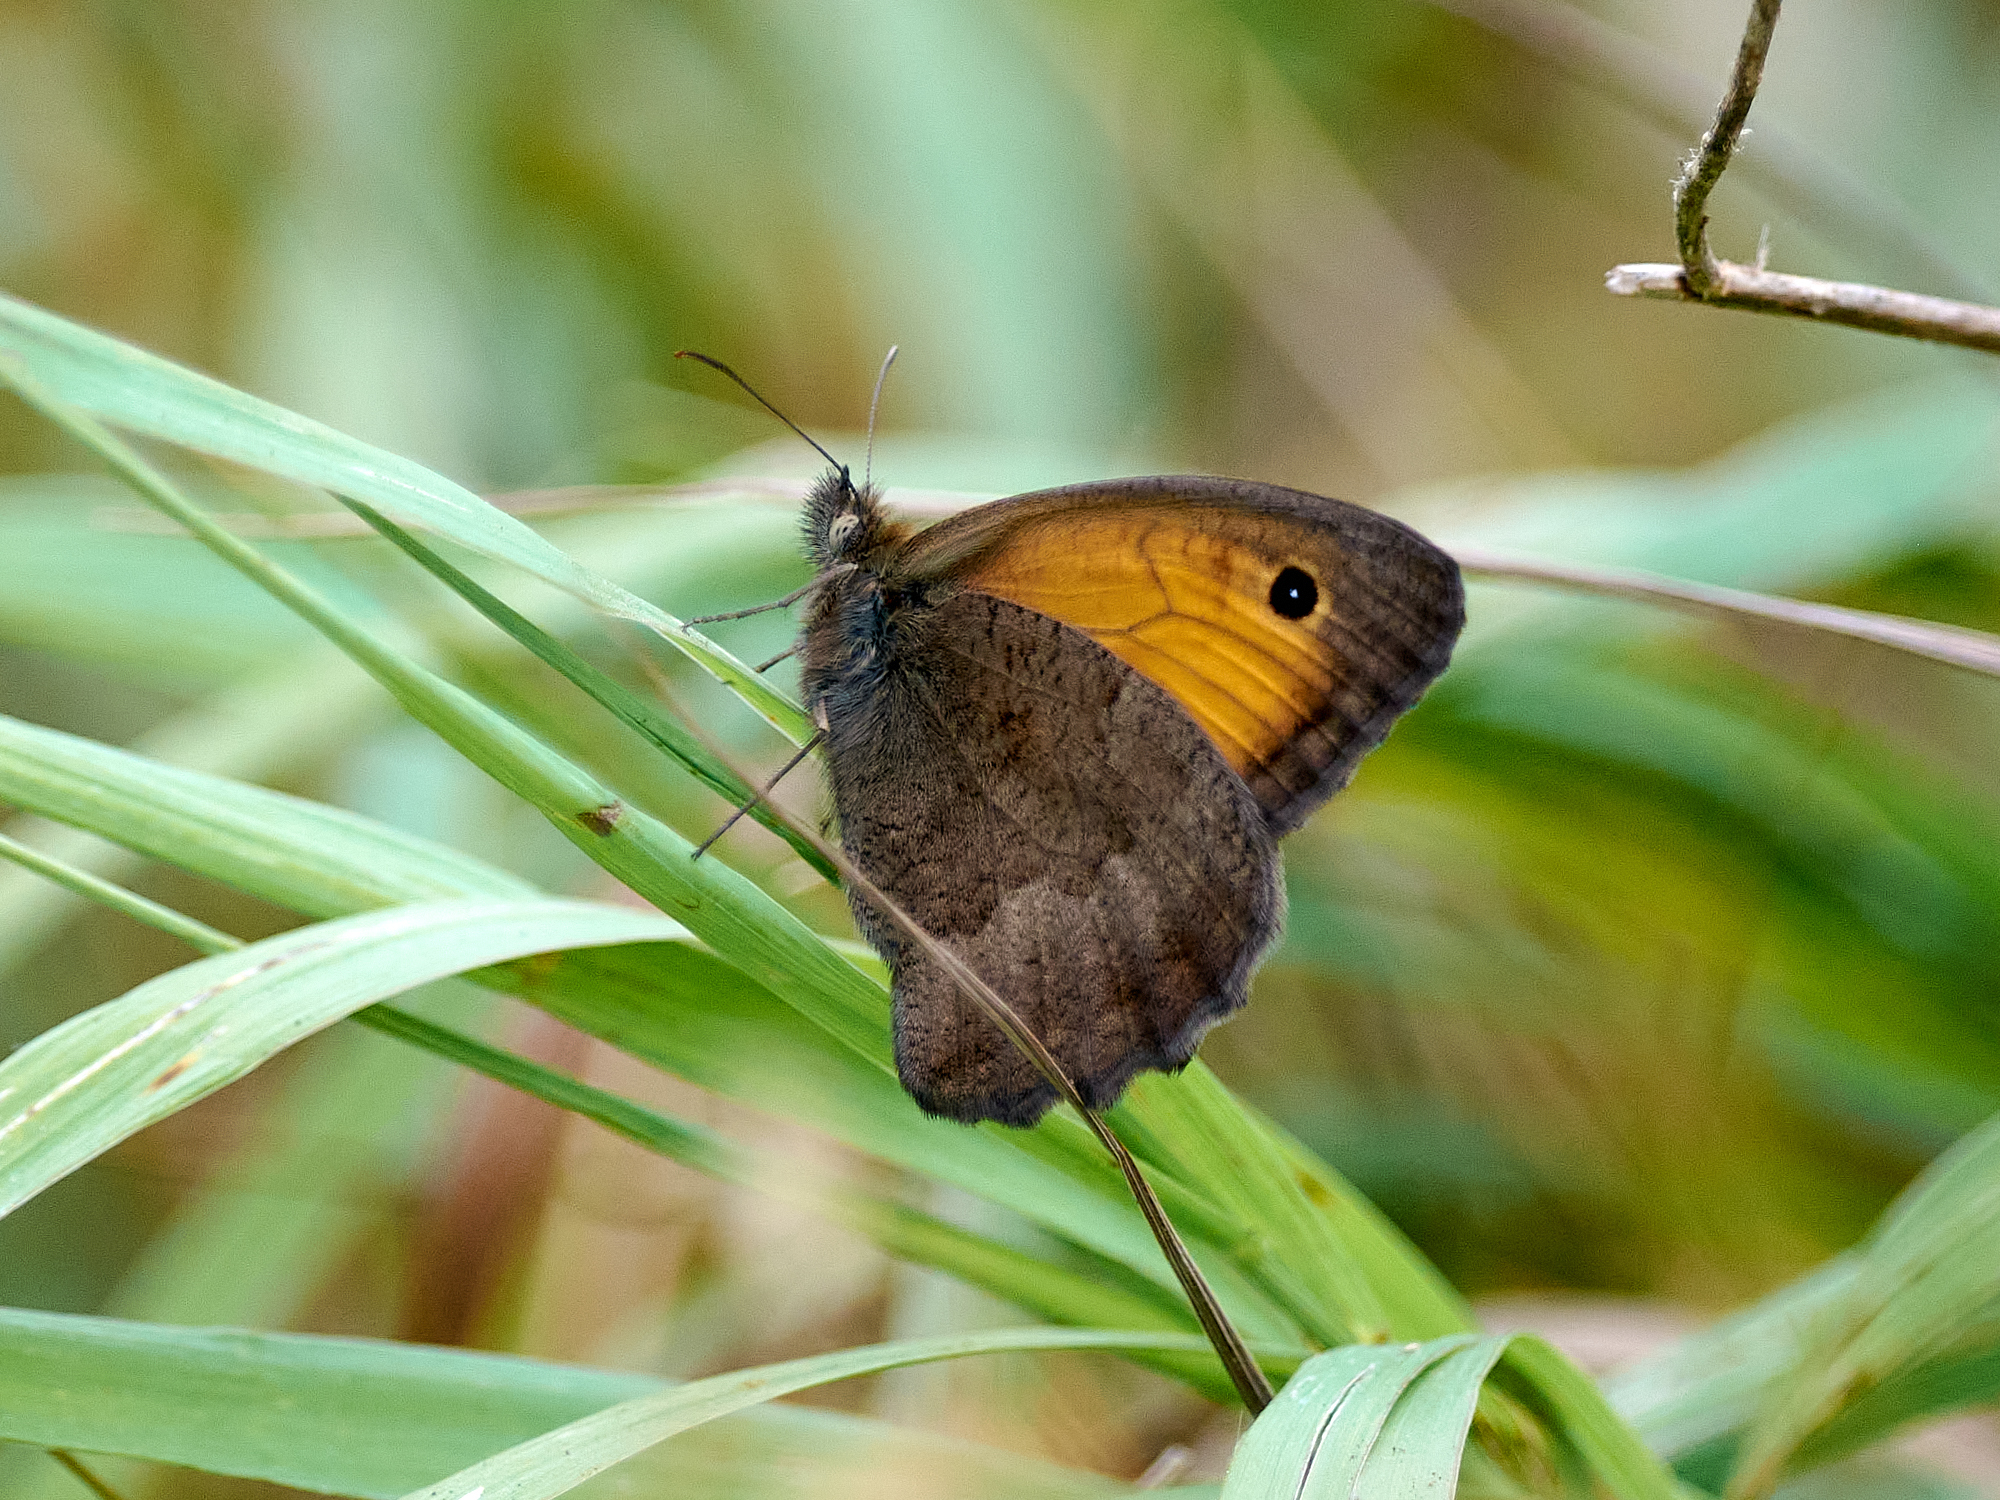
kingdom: Animalia
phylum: Arthropoda
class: Insecta
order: Lepidoptera
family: Nymphalidae
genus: Hyponephele
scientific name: Hyponephele lycaon
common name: Dusky meadow brown
